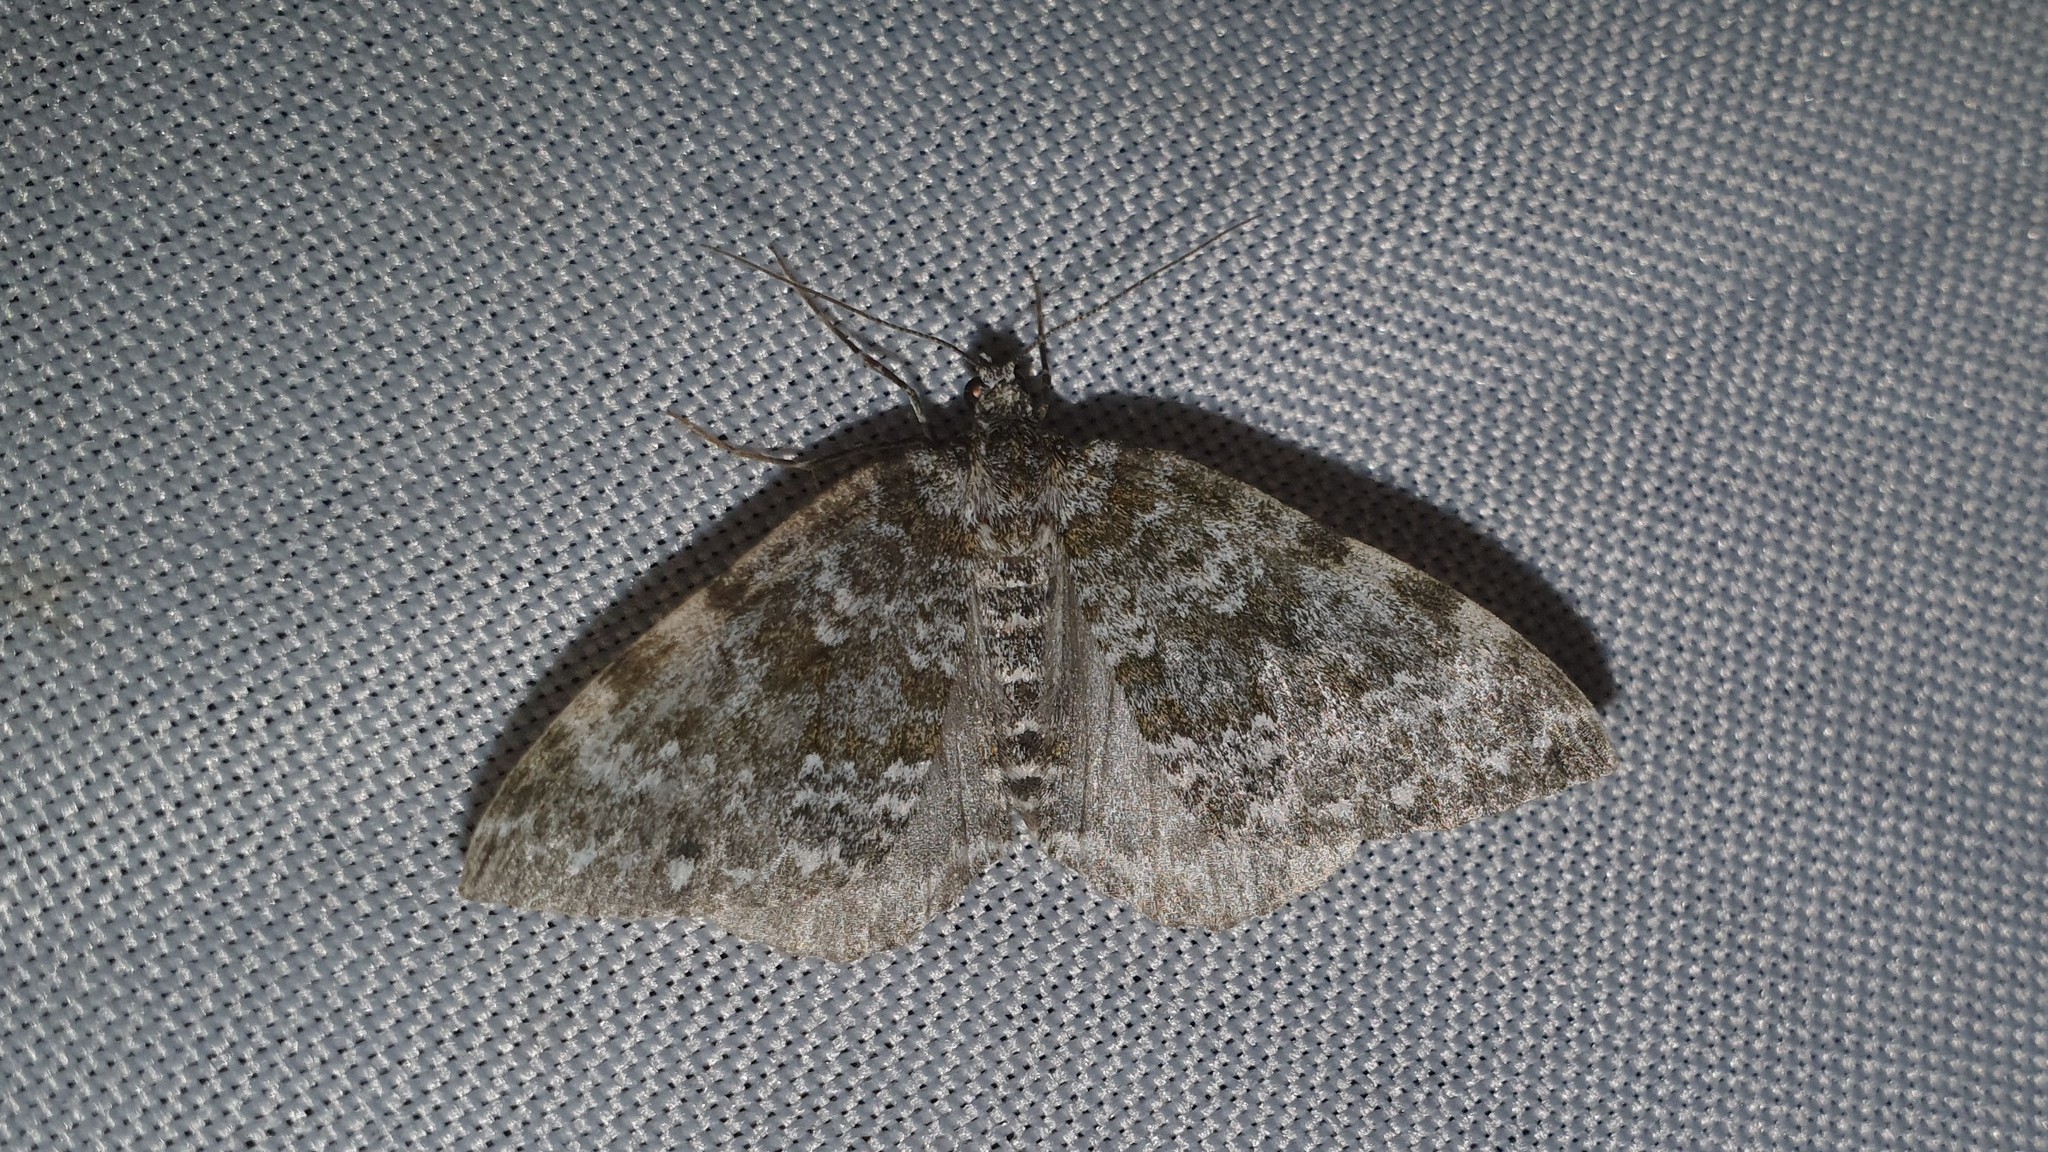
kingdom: Animalia
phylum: Arthropoda
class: Insecta
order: Lepidoptera
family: Geometridae
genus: Entephria
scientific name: Entephria caeruleata
